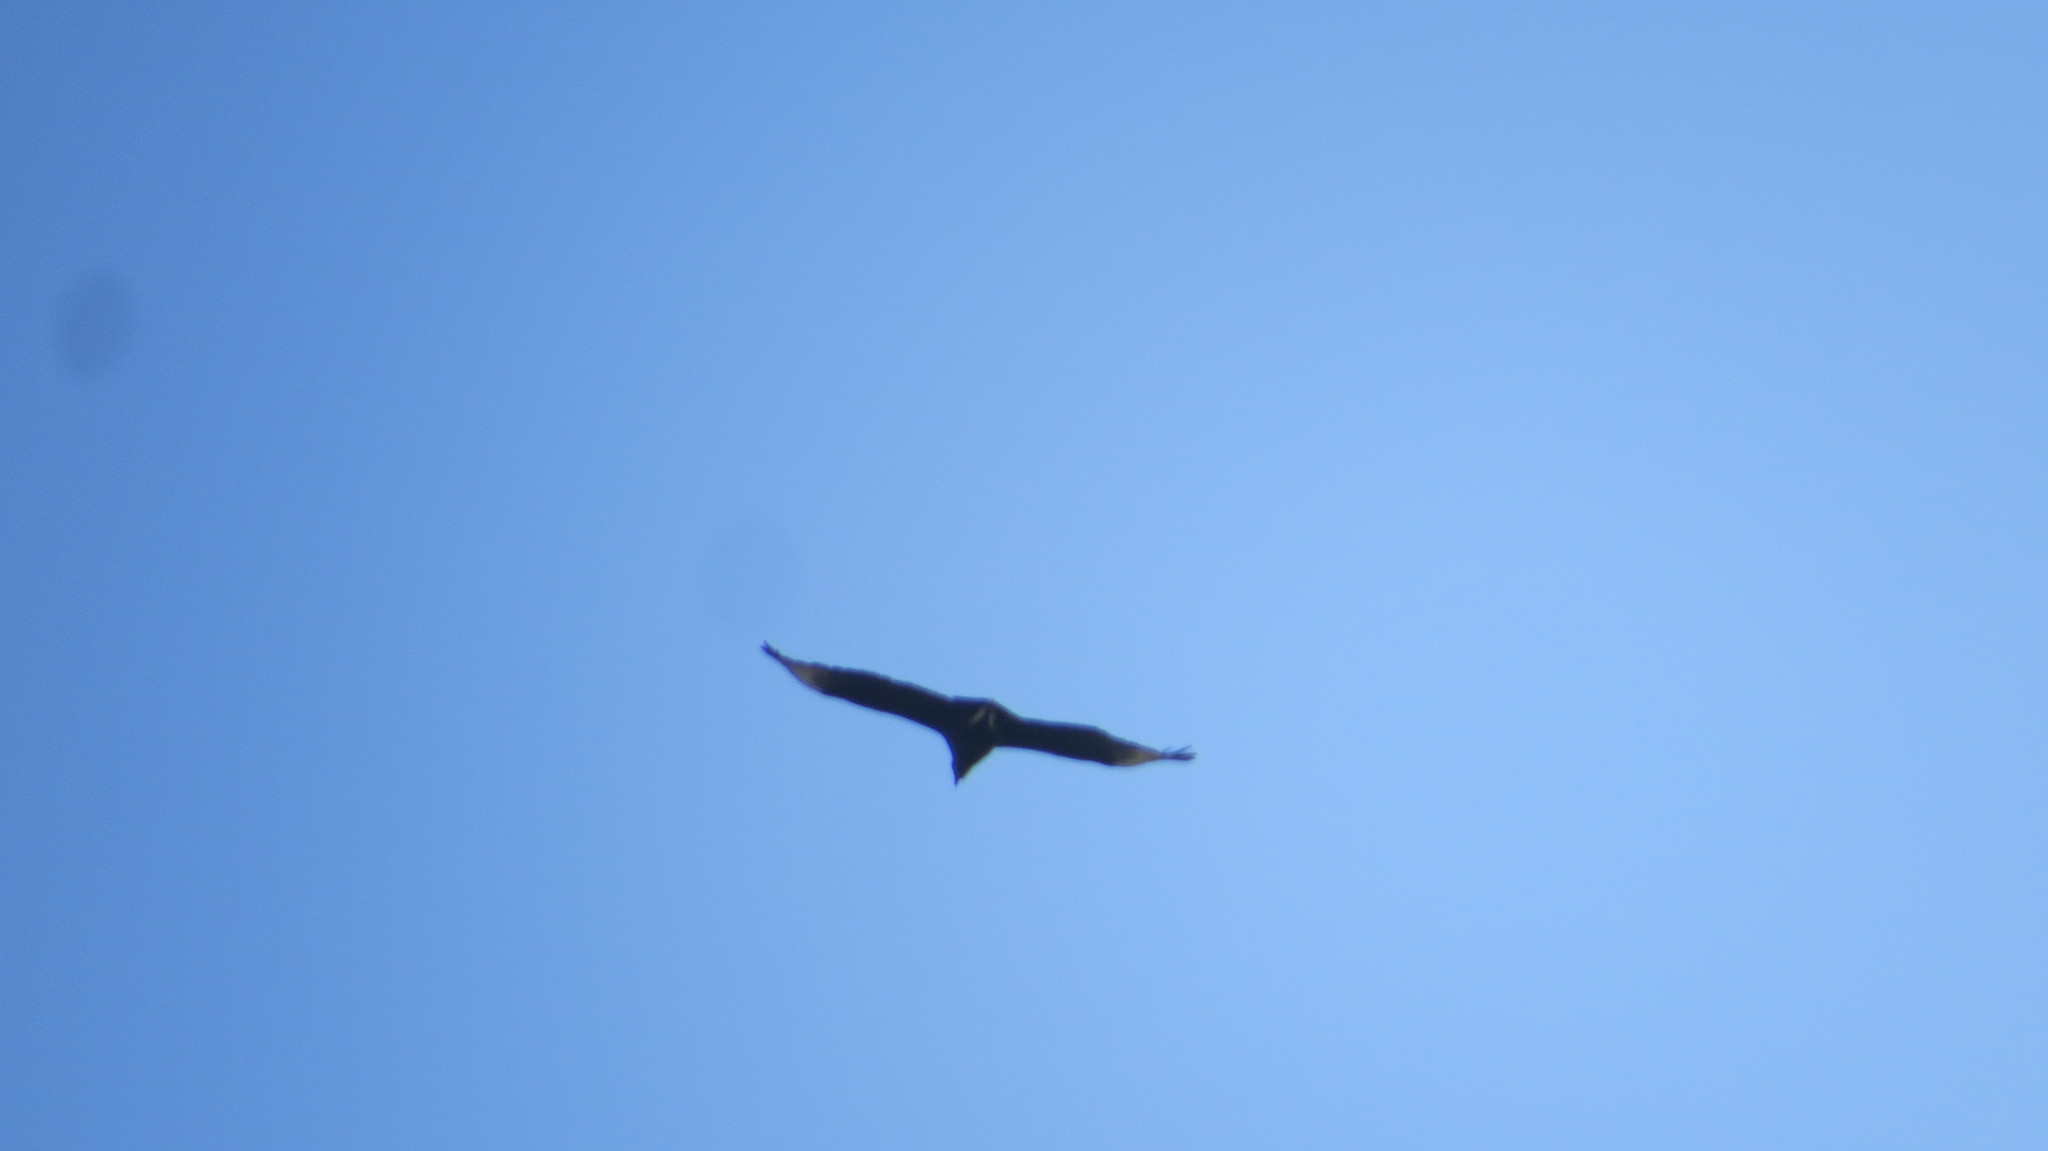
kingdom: Animalia
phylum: Chordata
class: Aves
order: Accipitriformes
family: Cathartidae
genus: Coragyps
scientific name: Coragyps atratus
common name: Black vulture
